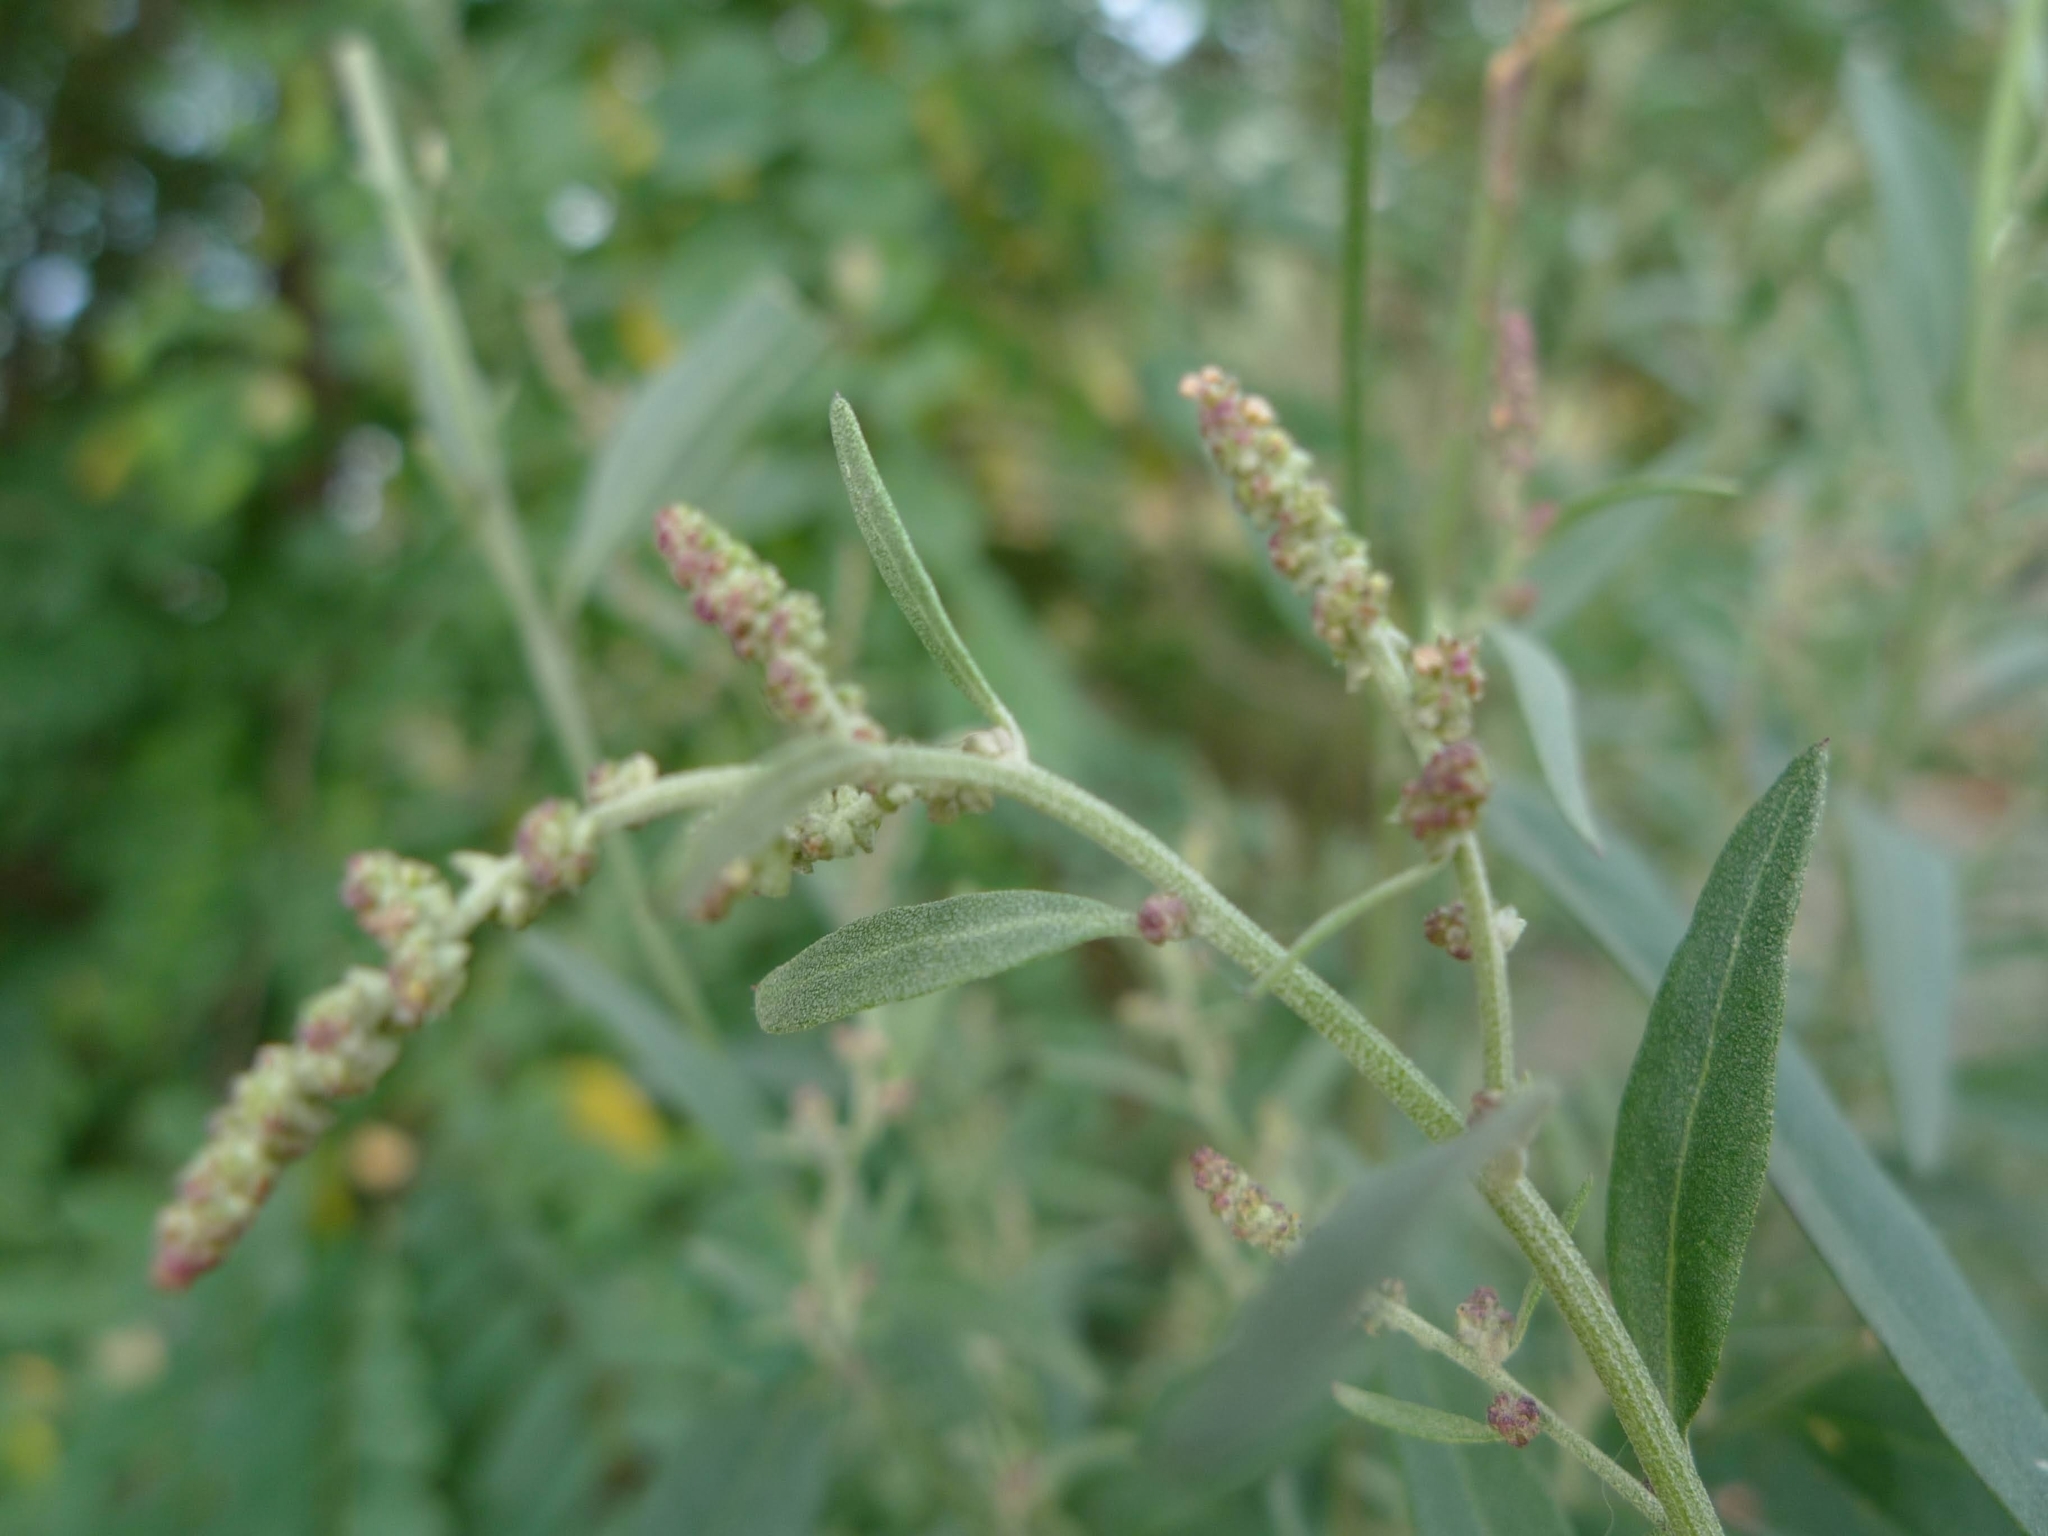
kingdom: Plantae
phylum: Tracheophyta
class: Magnoliopsida
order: Caryophyllales
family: Amaranthaceae
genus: Atriplex
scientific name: Atriplex oblongifolia
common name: Oblongleaf orache
